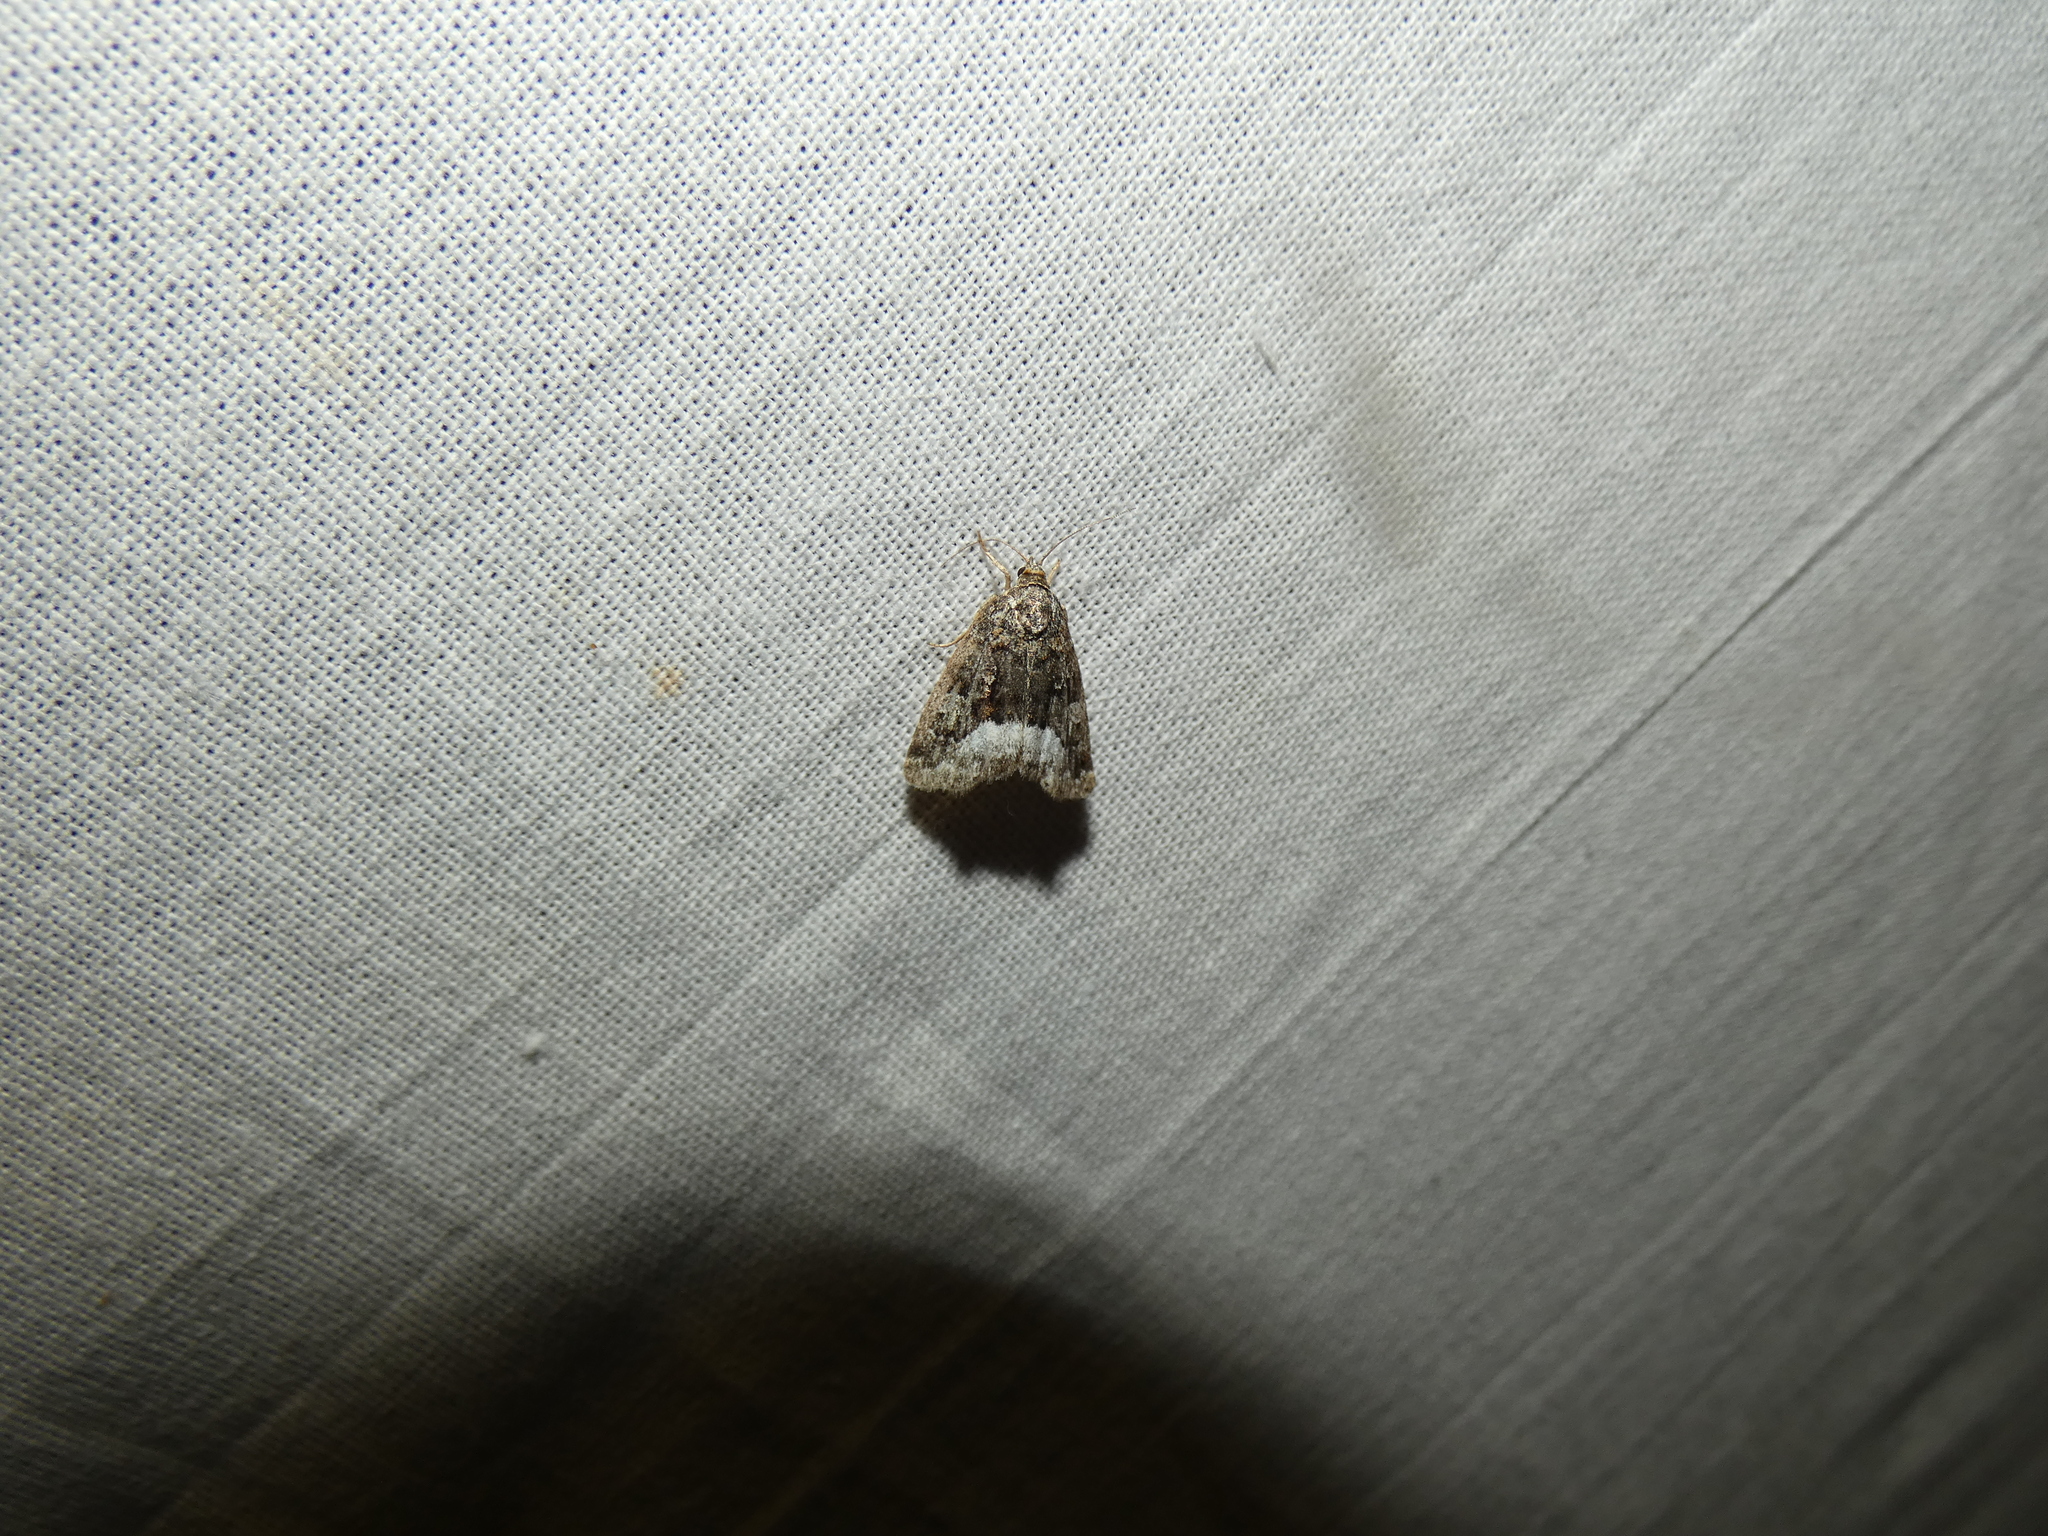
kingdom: Animalia
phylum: Arthropoda
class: Insecta
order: Lepidoptera
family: Noctuidae
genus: Deltote
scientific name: Deltote pygarga
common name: Marbled white spot
